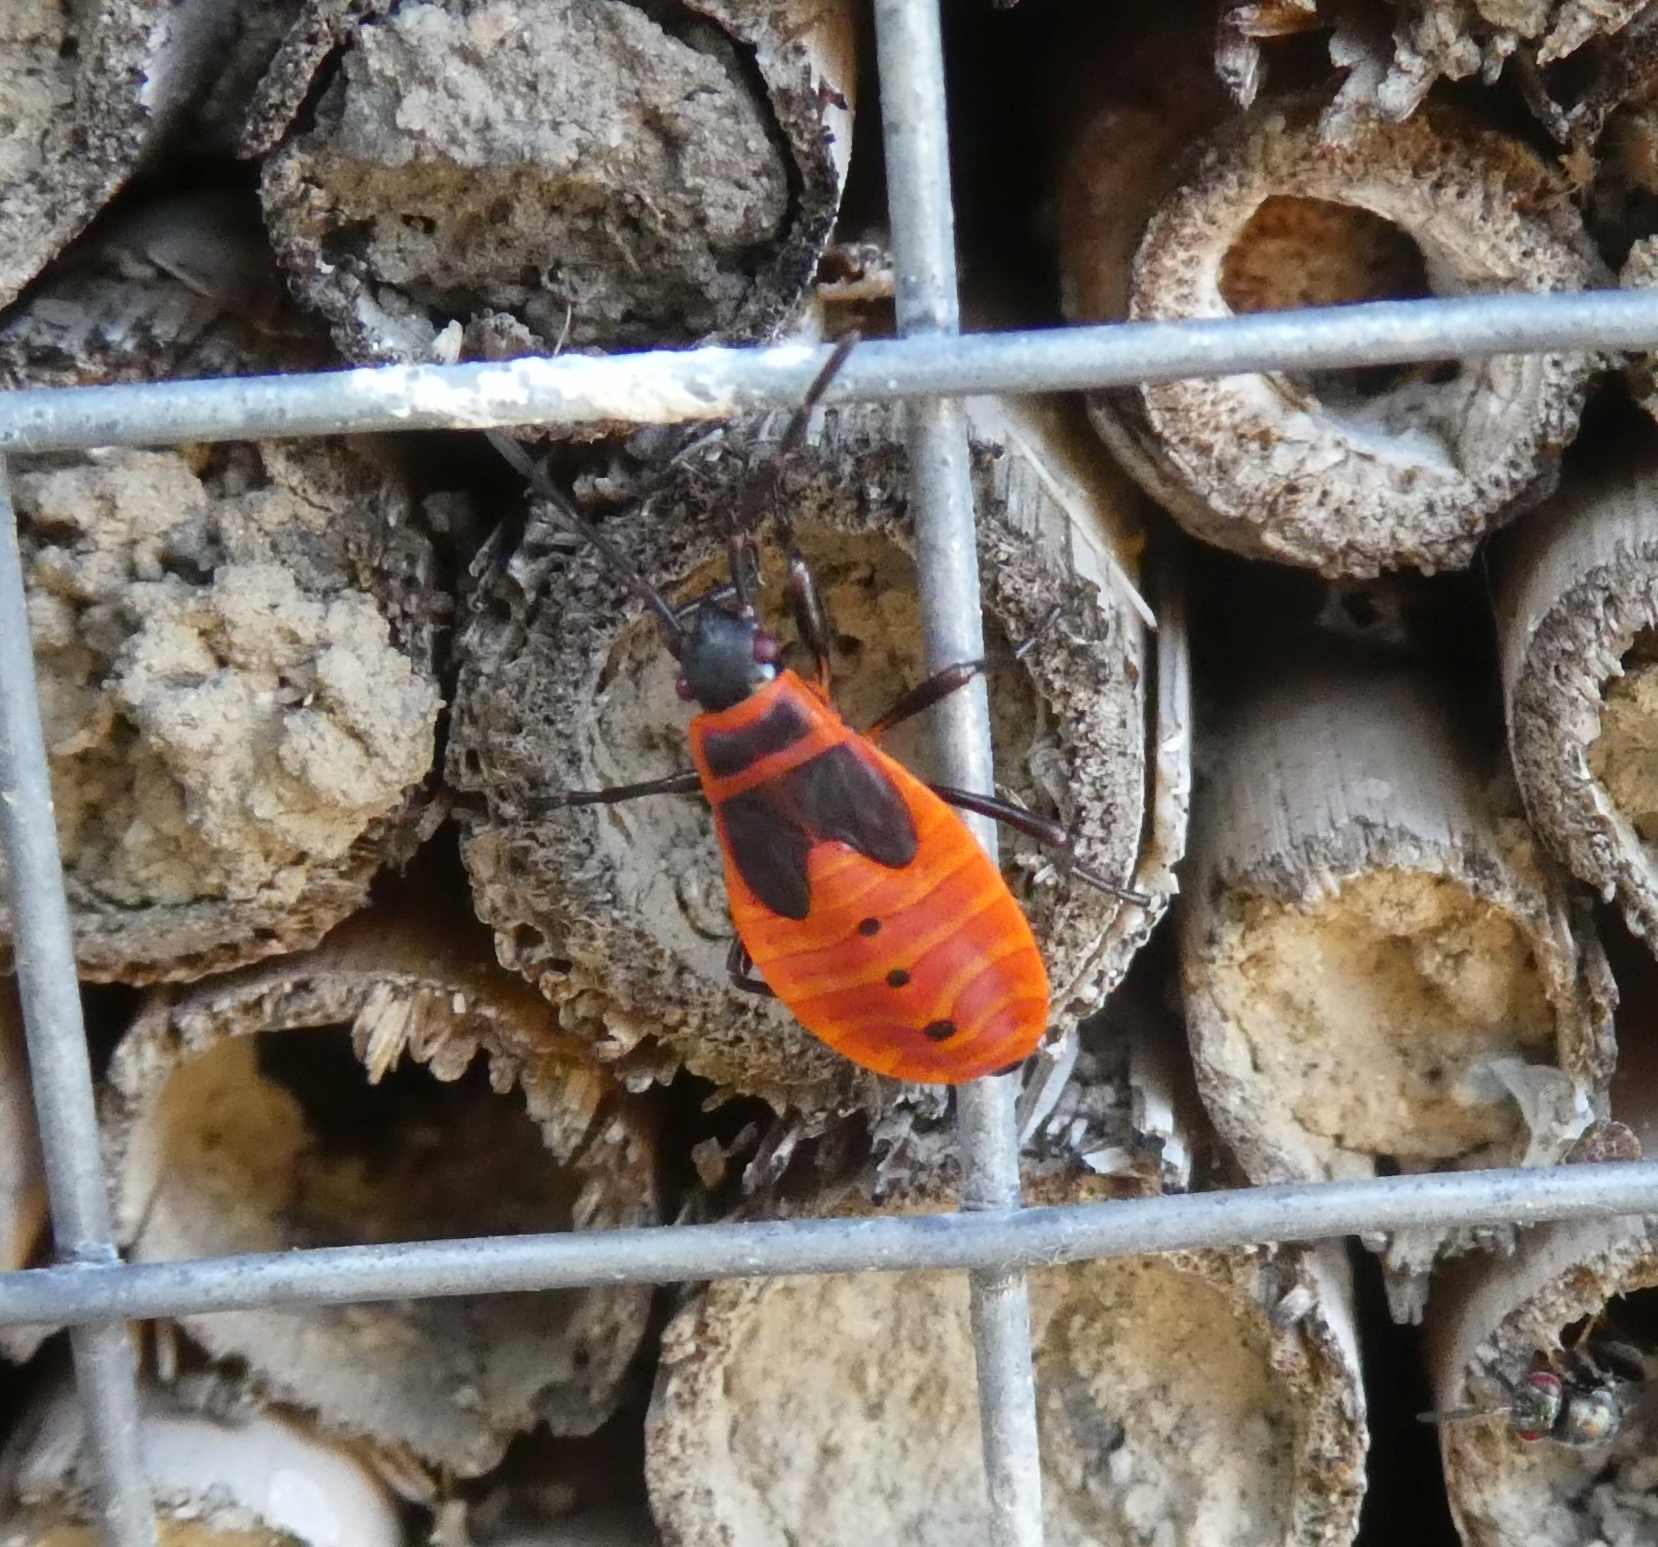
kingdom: Animalia
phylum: Arthropoda
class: Insecta
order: Hemiptera
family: Pyrrhocoridae
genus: Pyrrhocoris
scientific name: Pyrrhocoris apterus
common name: Firebug
